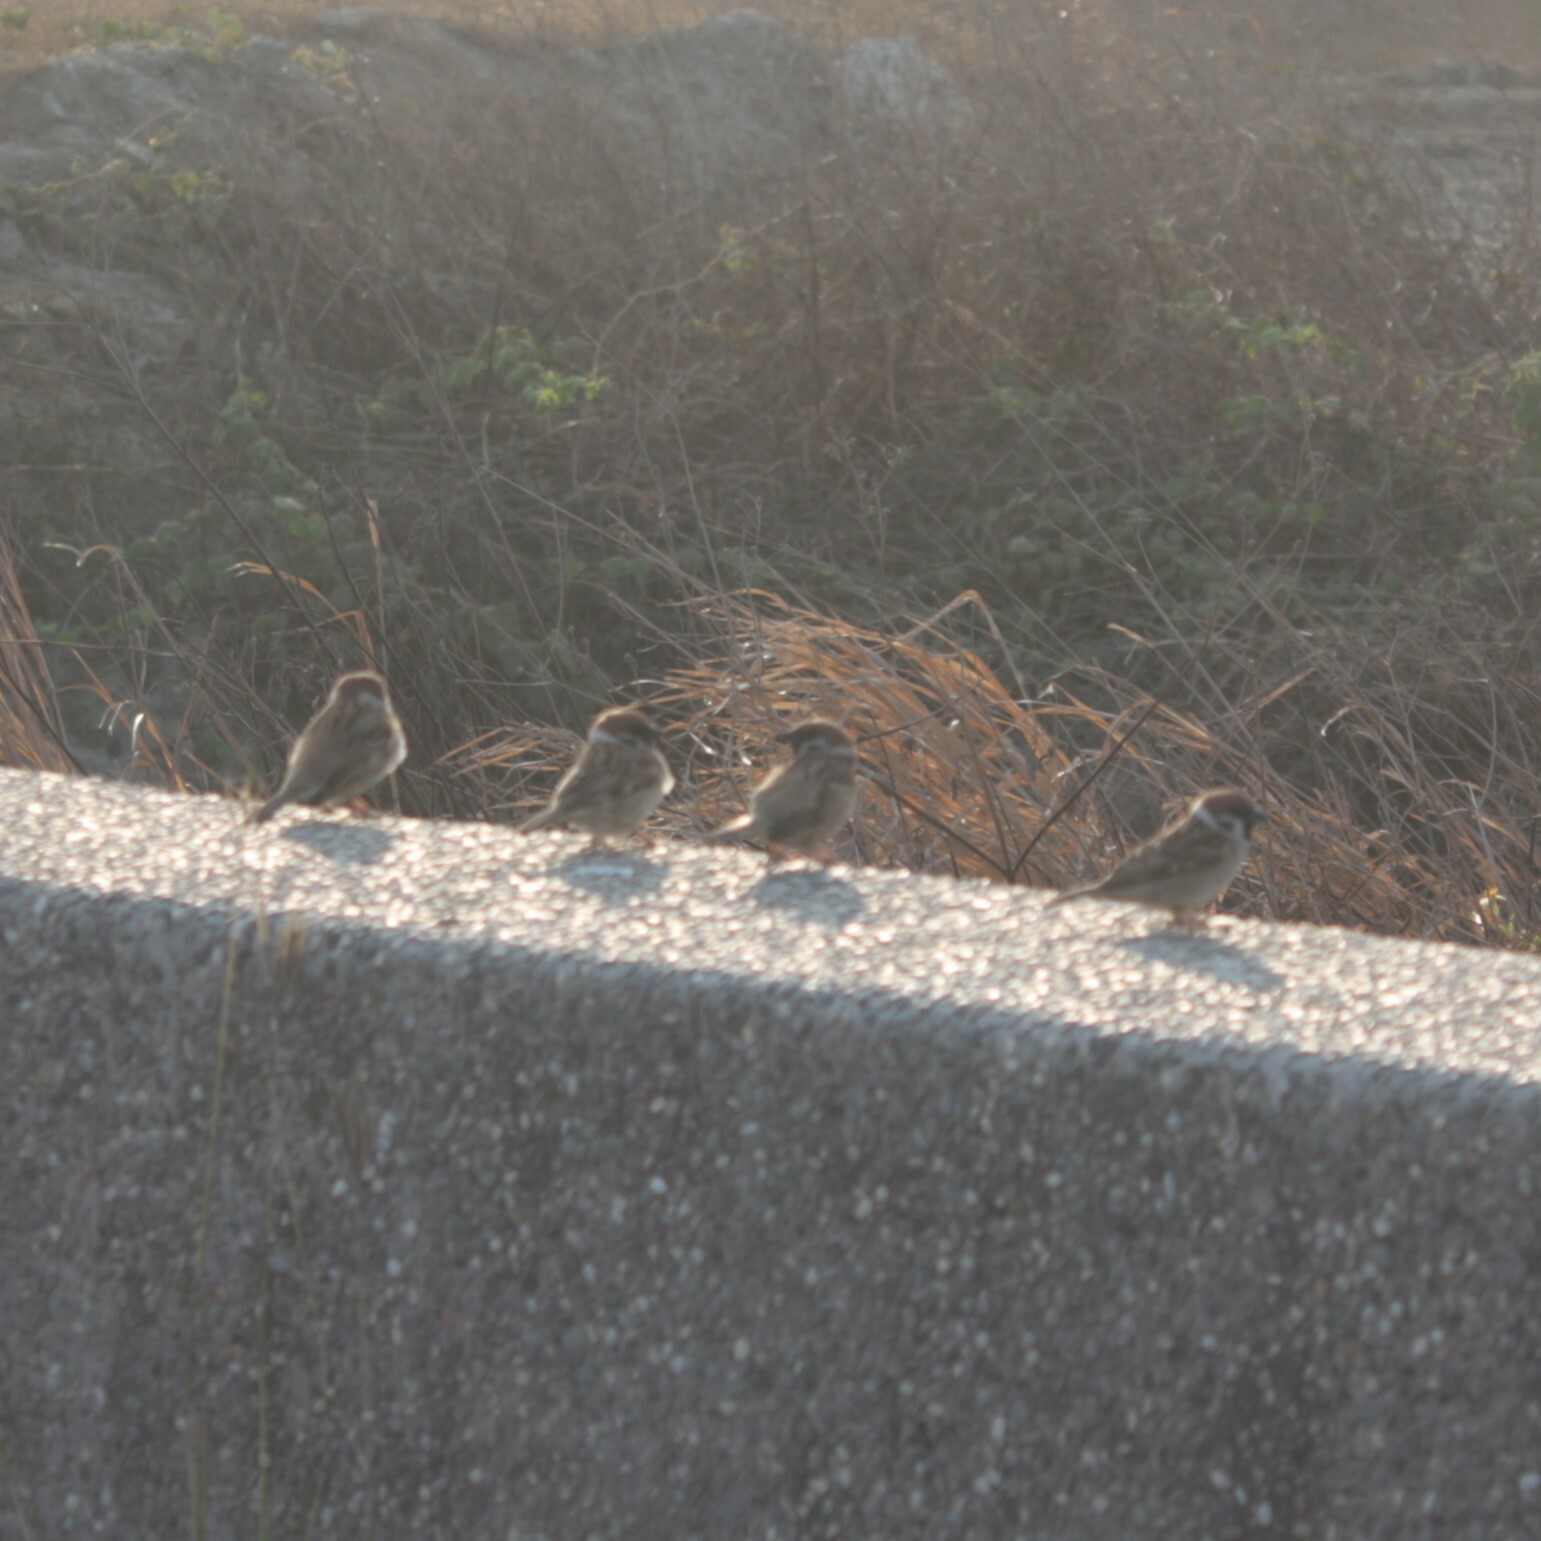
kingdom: Animalia
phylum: Chordata
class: Aves
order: Passeriformes
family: Passeridae
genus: Passer
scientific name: Passer montanus
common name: Eurasian tree sparrow
